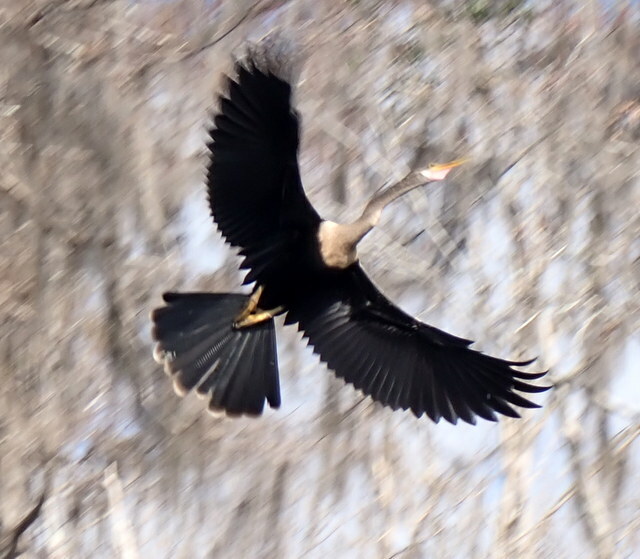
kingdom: Animalia
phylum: Chordata
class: Aves
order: Suliformes
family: Anhingidae
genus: Anhinga
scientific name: Anhinga anhinga
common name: Anhinga
